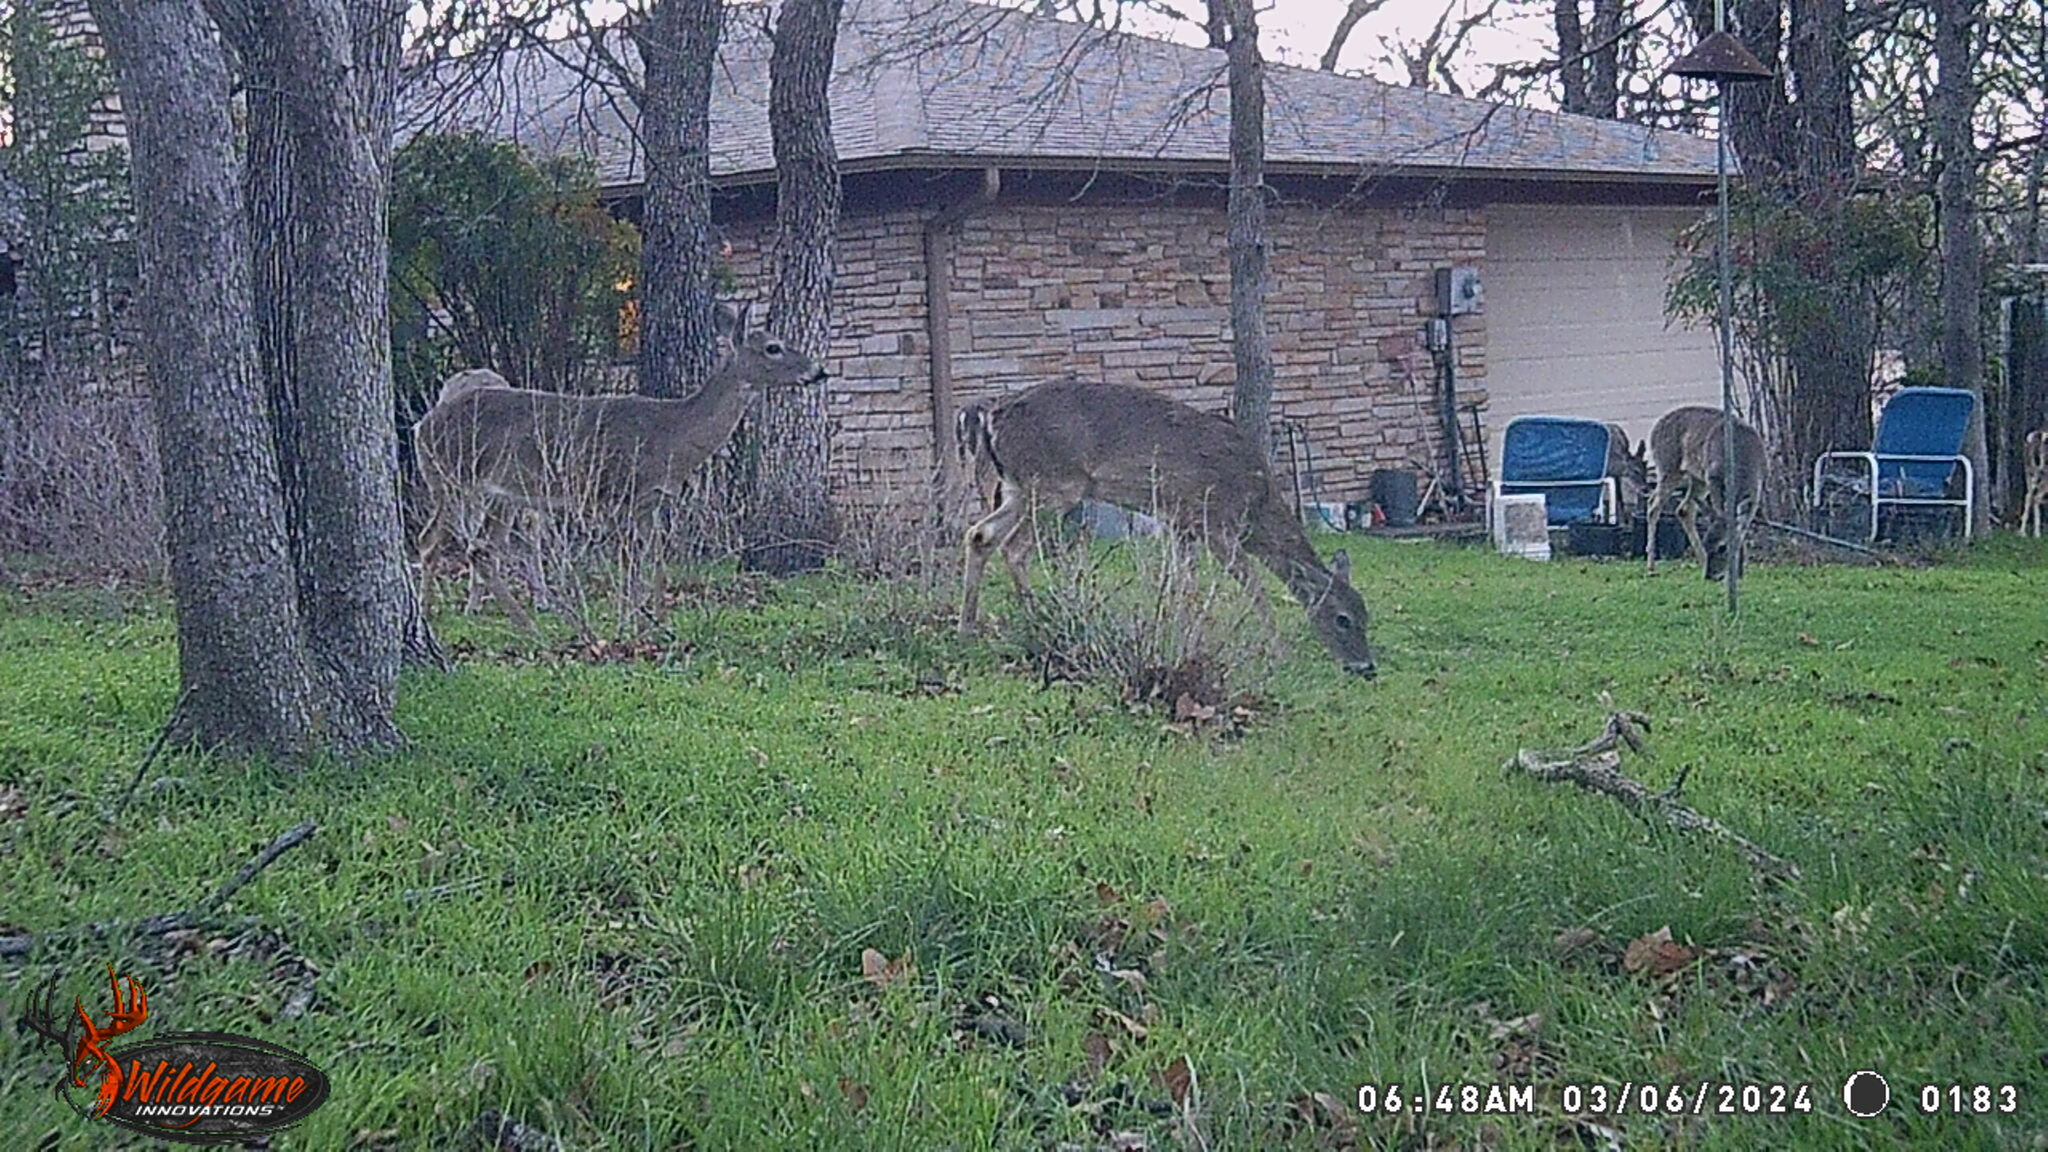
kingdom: Animalia
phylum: Chordata
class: Mammalia
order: Artiodactyla
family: Cervidae
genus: Odocoileus
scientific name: Odocoileus virginianus
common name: White-tailed deer
